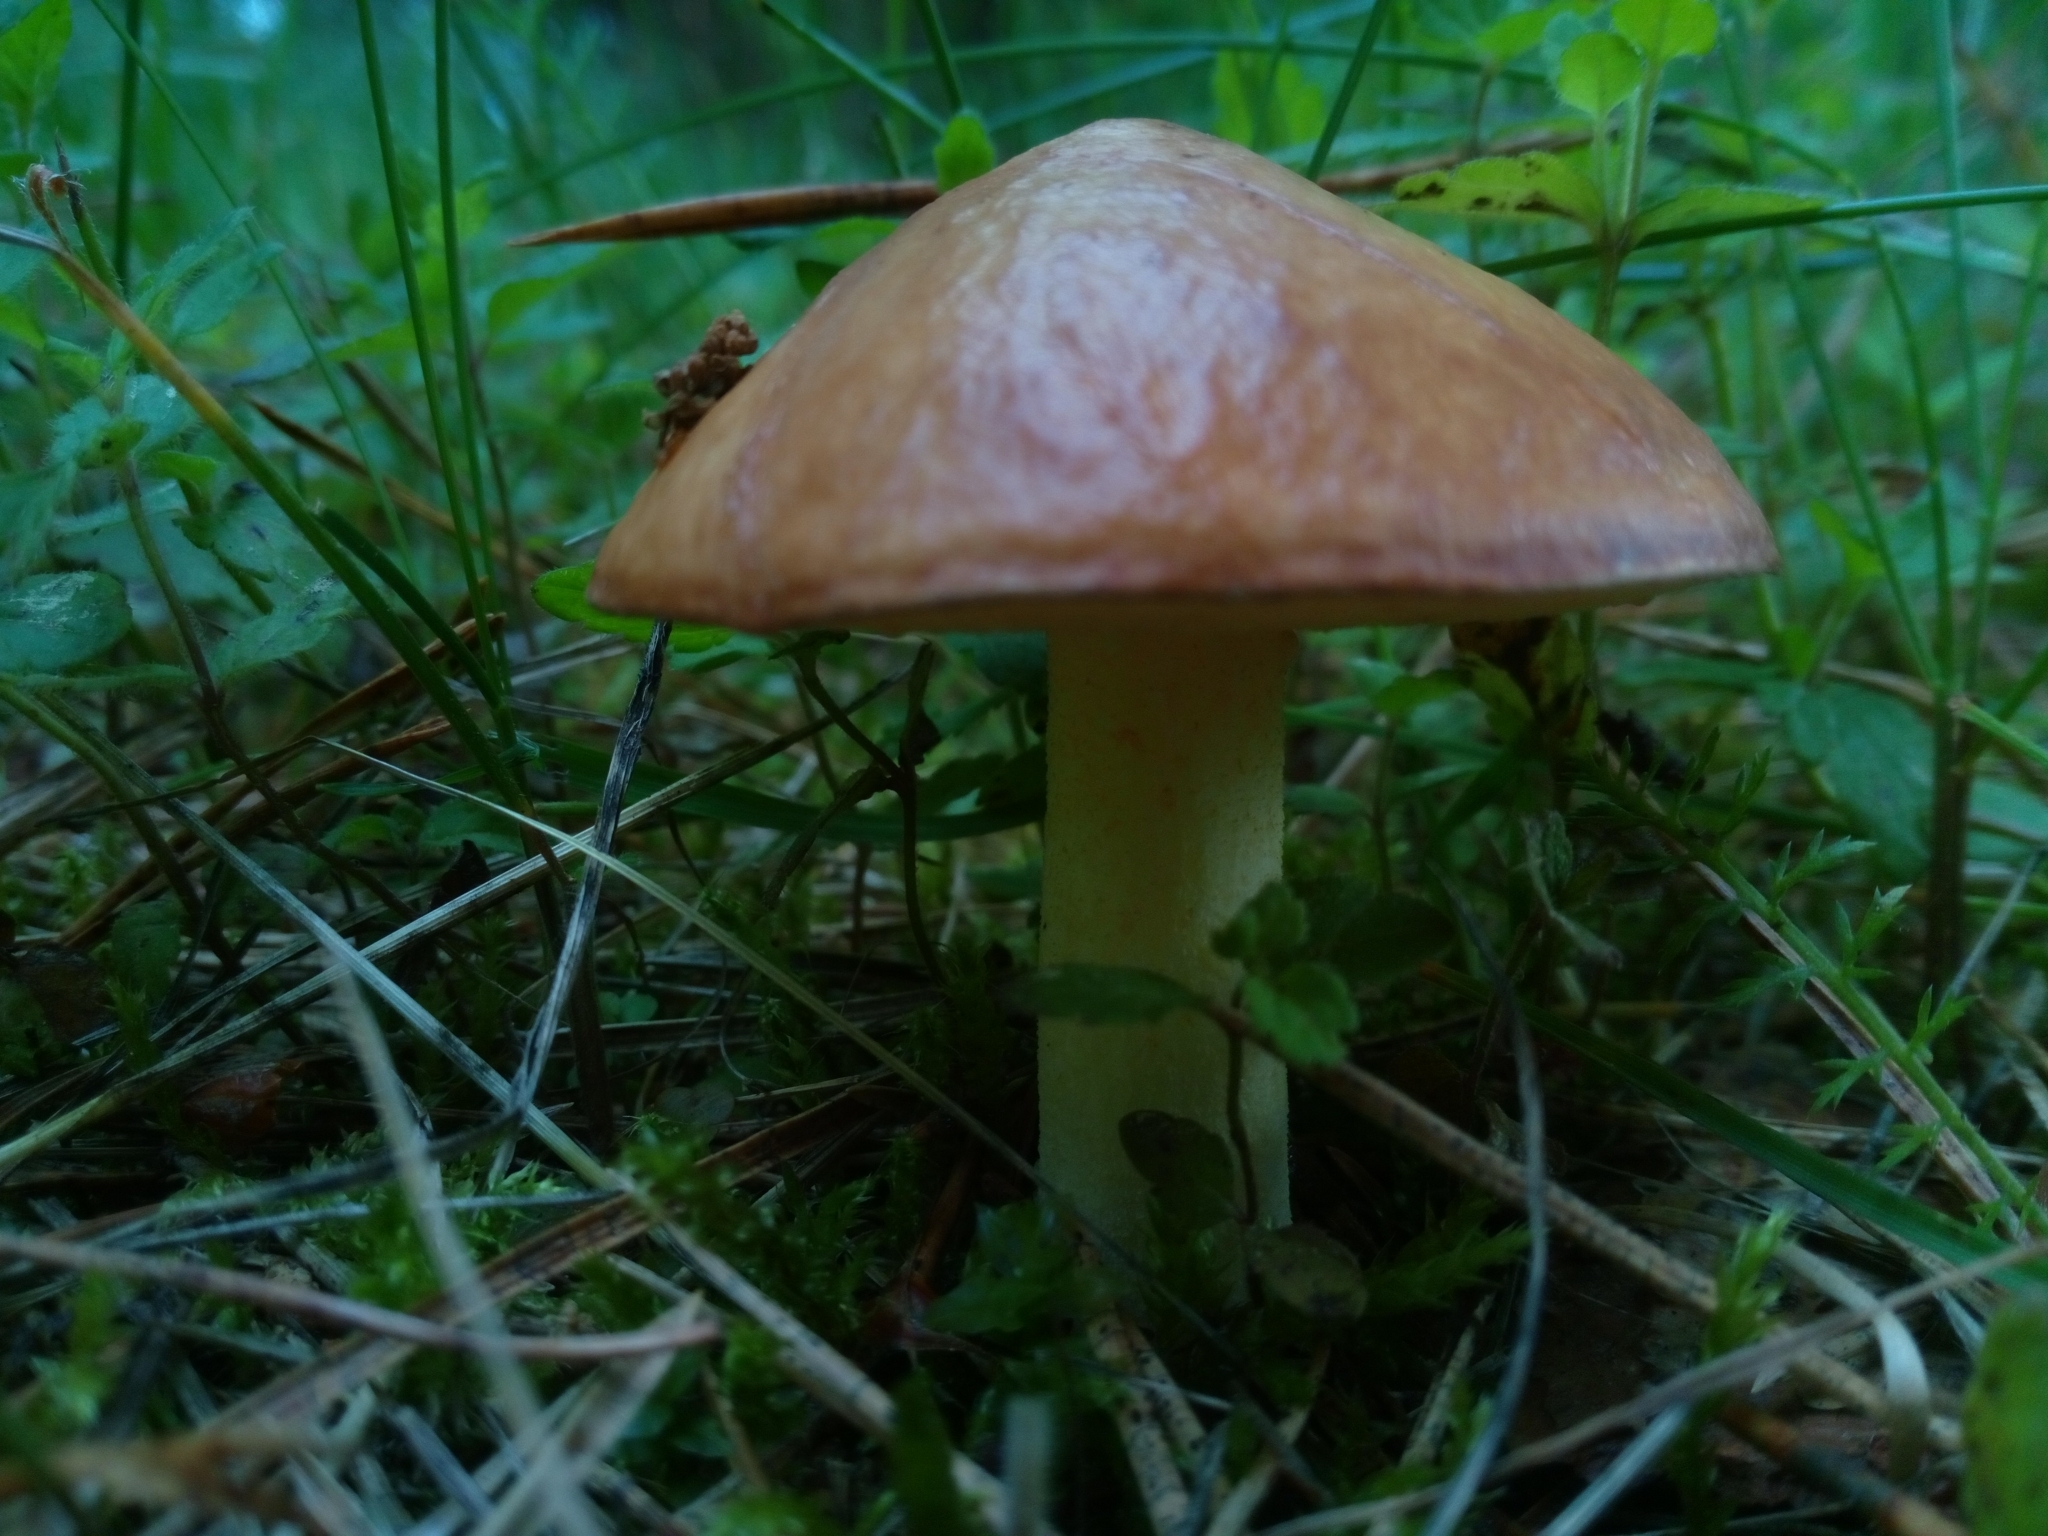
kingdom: Fungi
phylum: Basidiomycota
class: Agaricomycetes
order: Boletales
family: Suillaceae
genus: Suillus
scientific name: Suillus granulatus
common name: Weeping bolete
